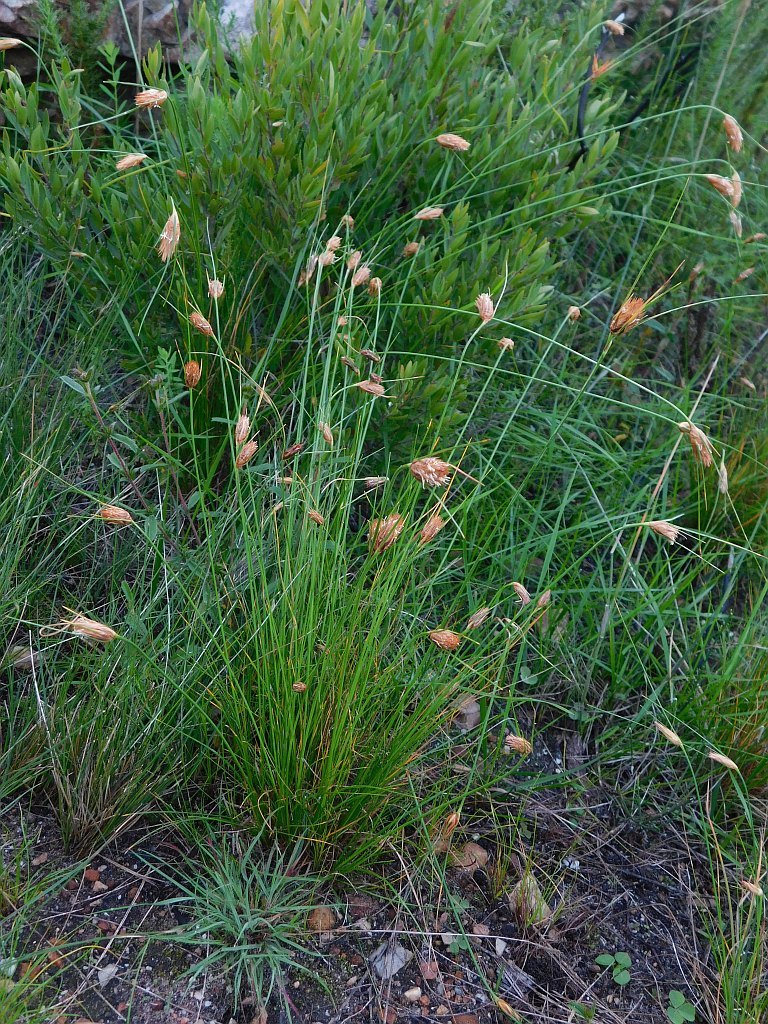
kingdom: Plantae
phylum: Tracheophyta
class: Liliopsida
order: Poales
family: Cyperaceae
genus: Ficinia
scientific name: Ficinia nigrescens
